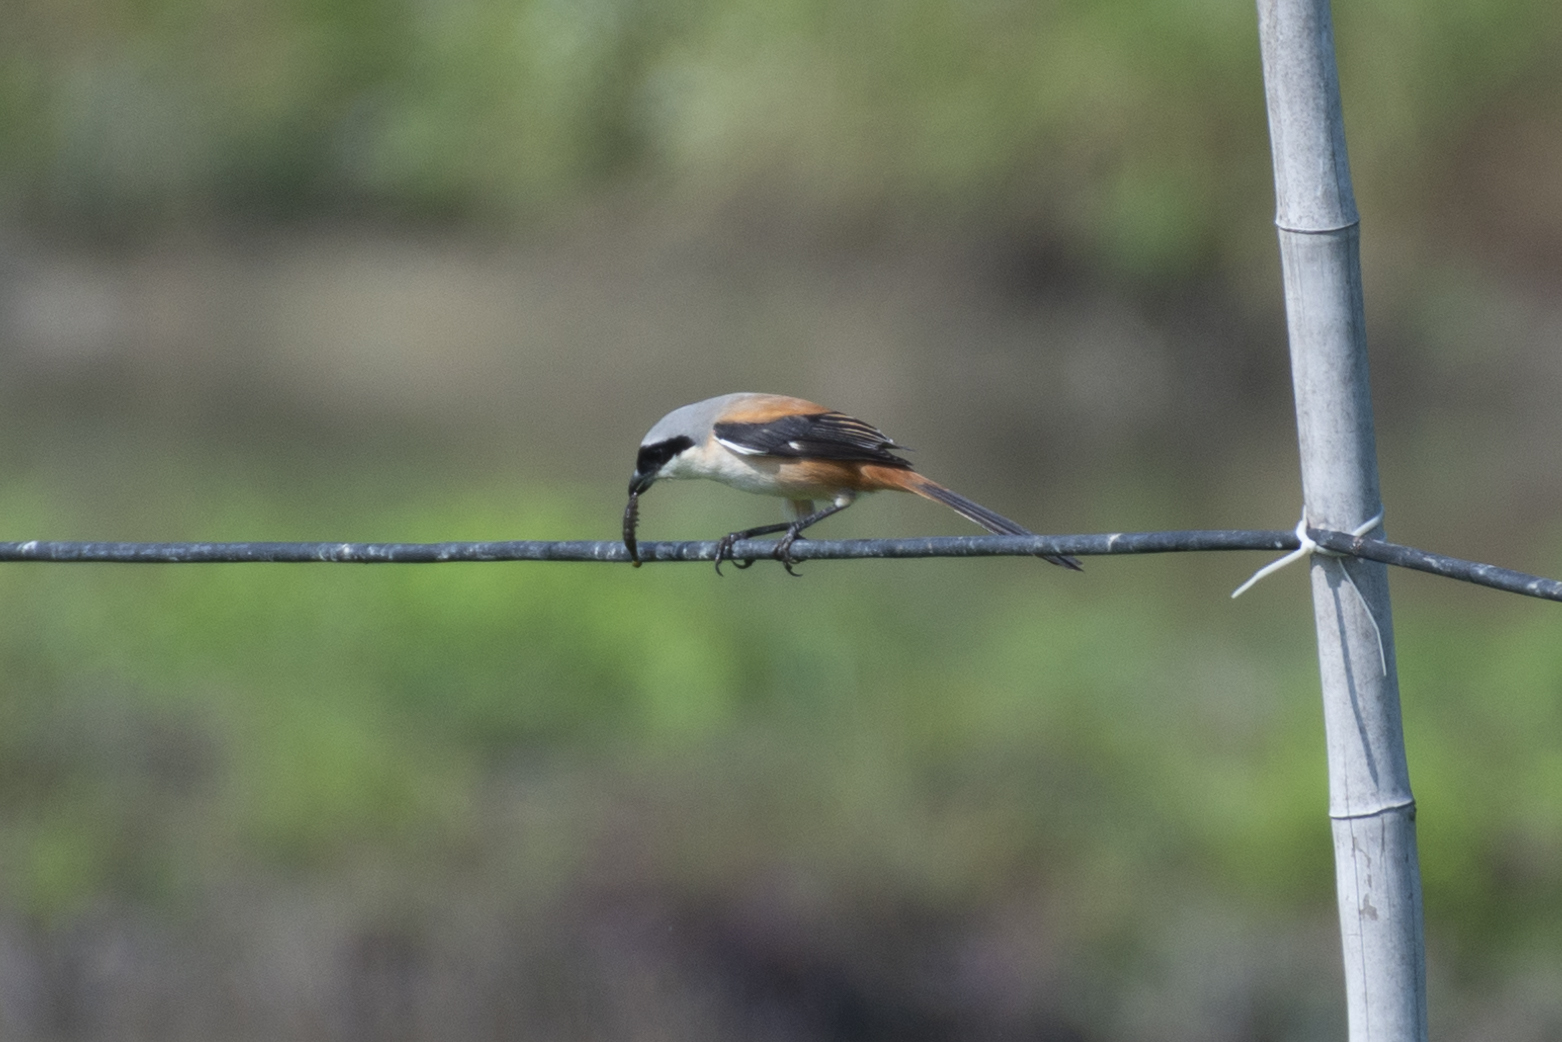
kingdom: Animalia
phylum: Chordata
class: Aves
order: Passeriformes
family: Laniidae
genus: Lanius
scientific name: Lanius schach
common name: Long-tailed shrike
